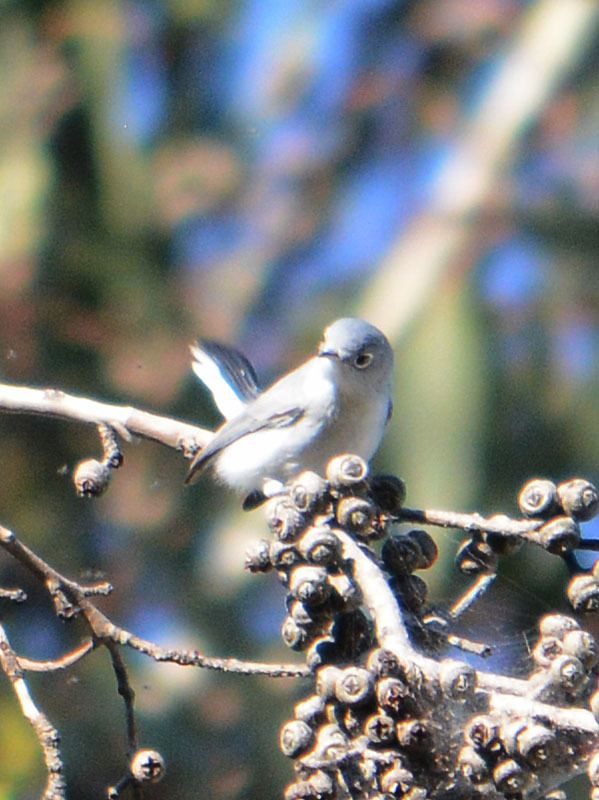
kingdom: Animalia
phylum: Chordata
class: Aves
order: Passeriformes
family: Polioptilidae
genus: Polioptila
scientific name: Polioptila caerulea
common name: Blue-gray gnatcatcher
